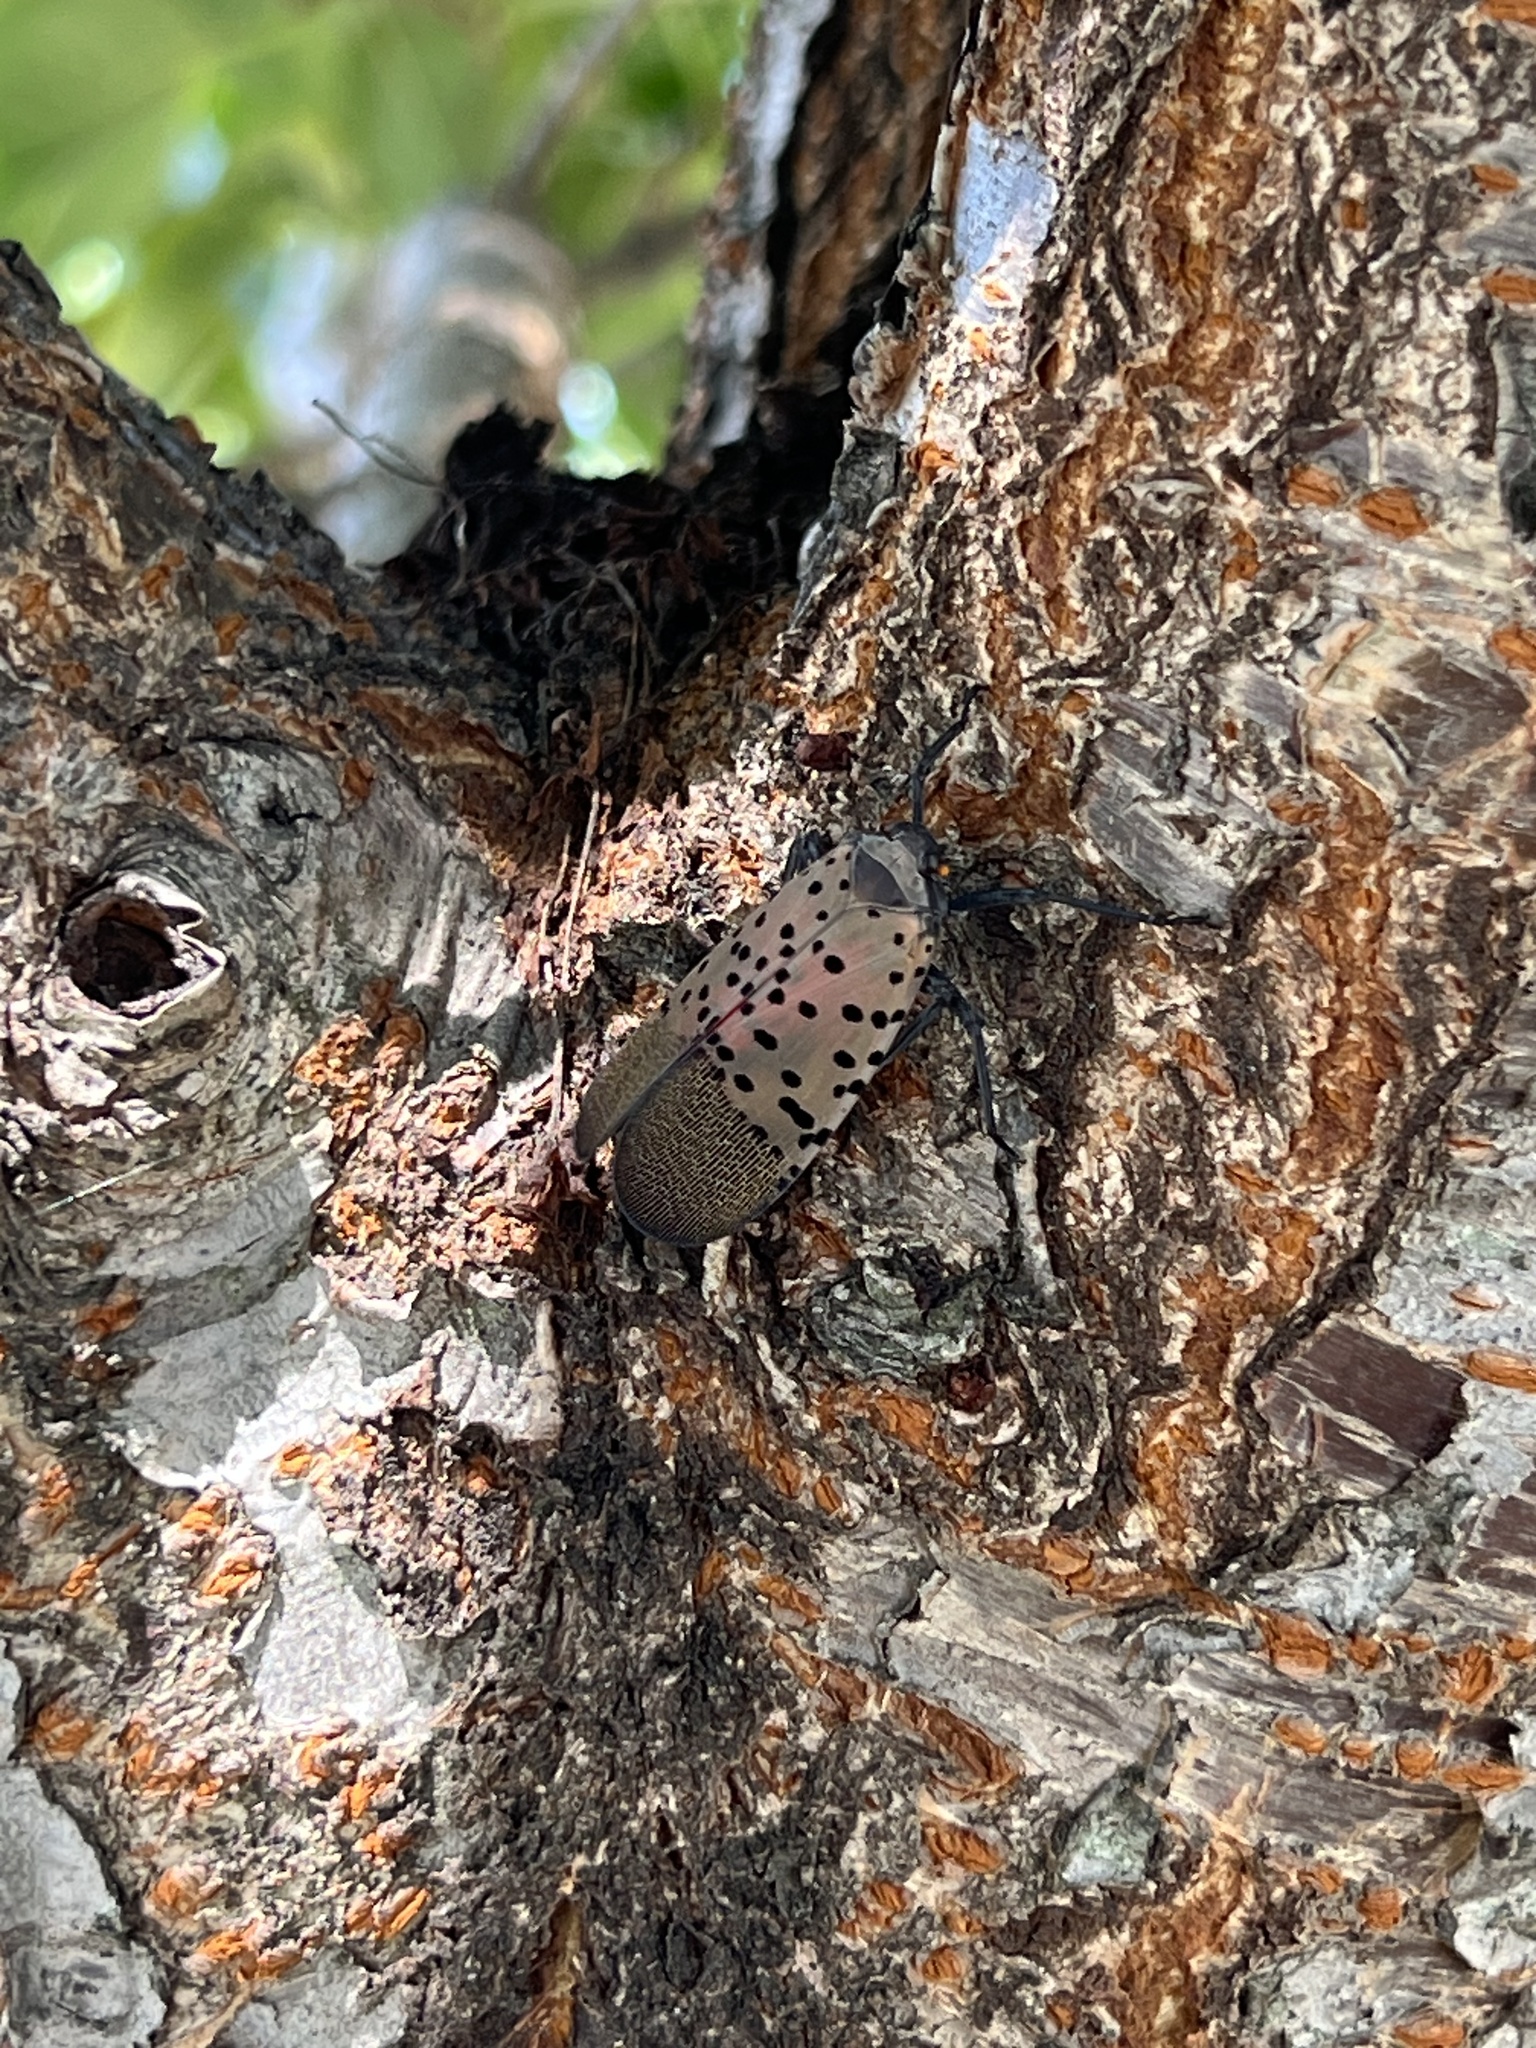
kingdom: Animalia
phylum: Arthropoda
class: Insecta
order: Hemiptera
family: Fulgoridae
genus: Lycorma
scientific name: Lycorma delicatula
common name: Spotted lanternfly
